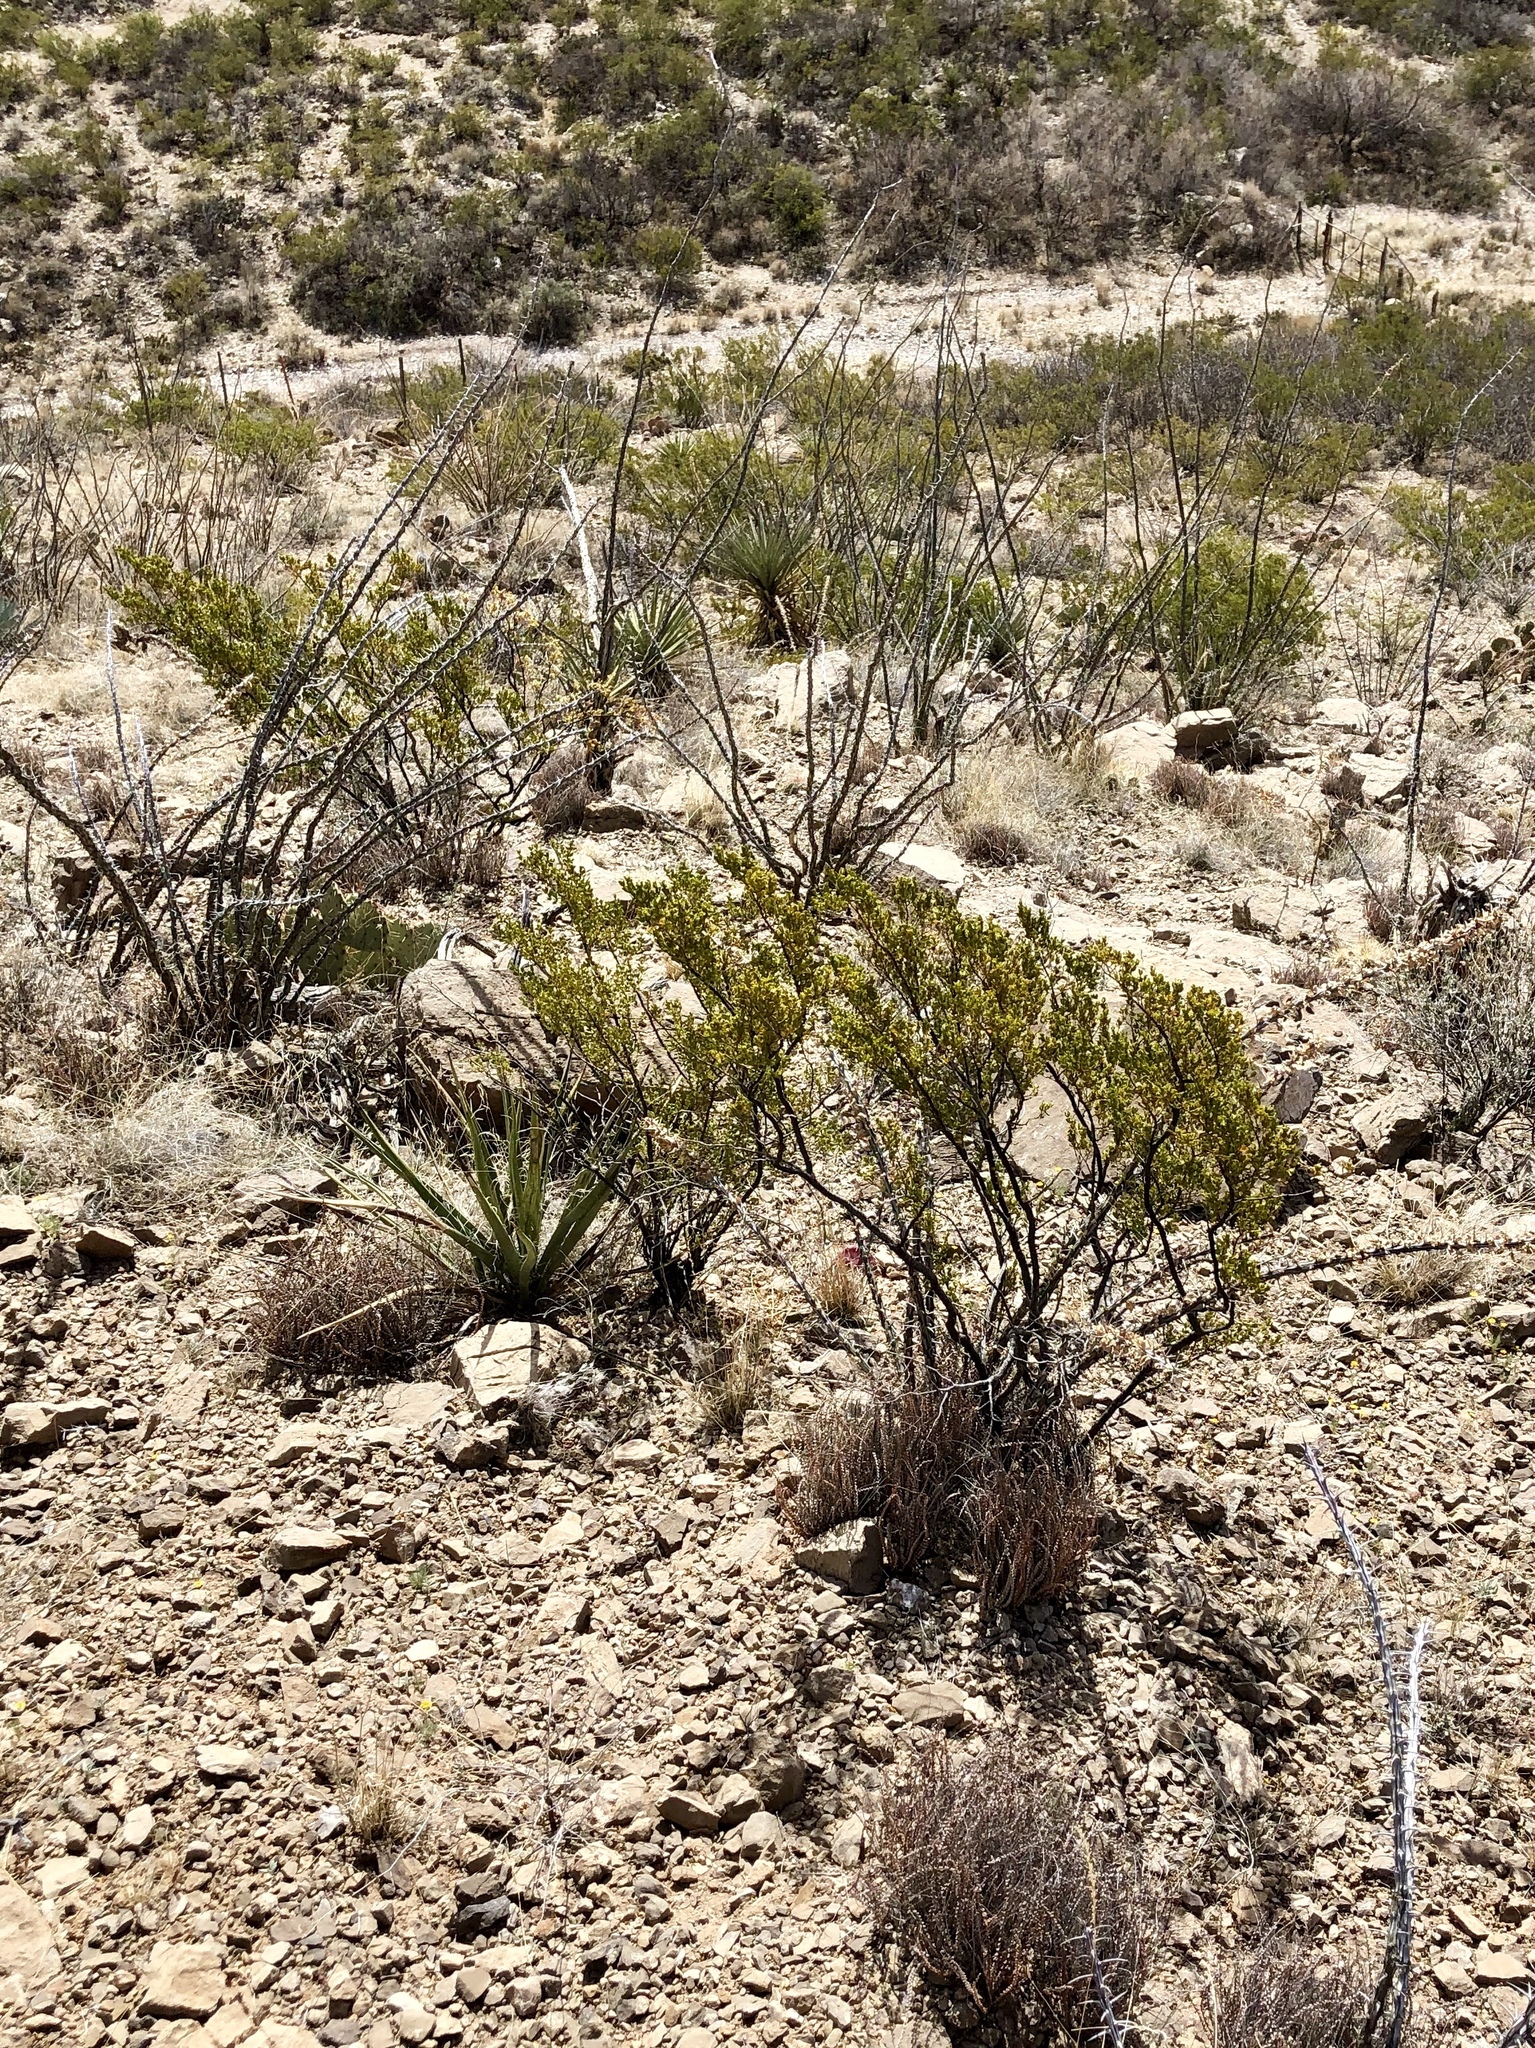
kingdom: Plantae
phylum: Tracheophyta
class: Magnoliopsida
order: Zygophyllales
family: Zygophyllaceae
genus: Larrea
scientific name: Larrea tridentata
